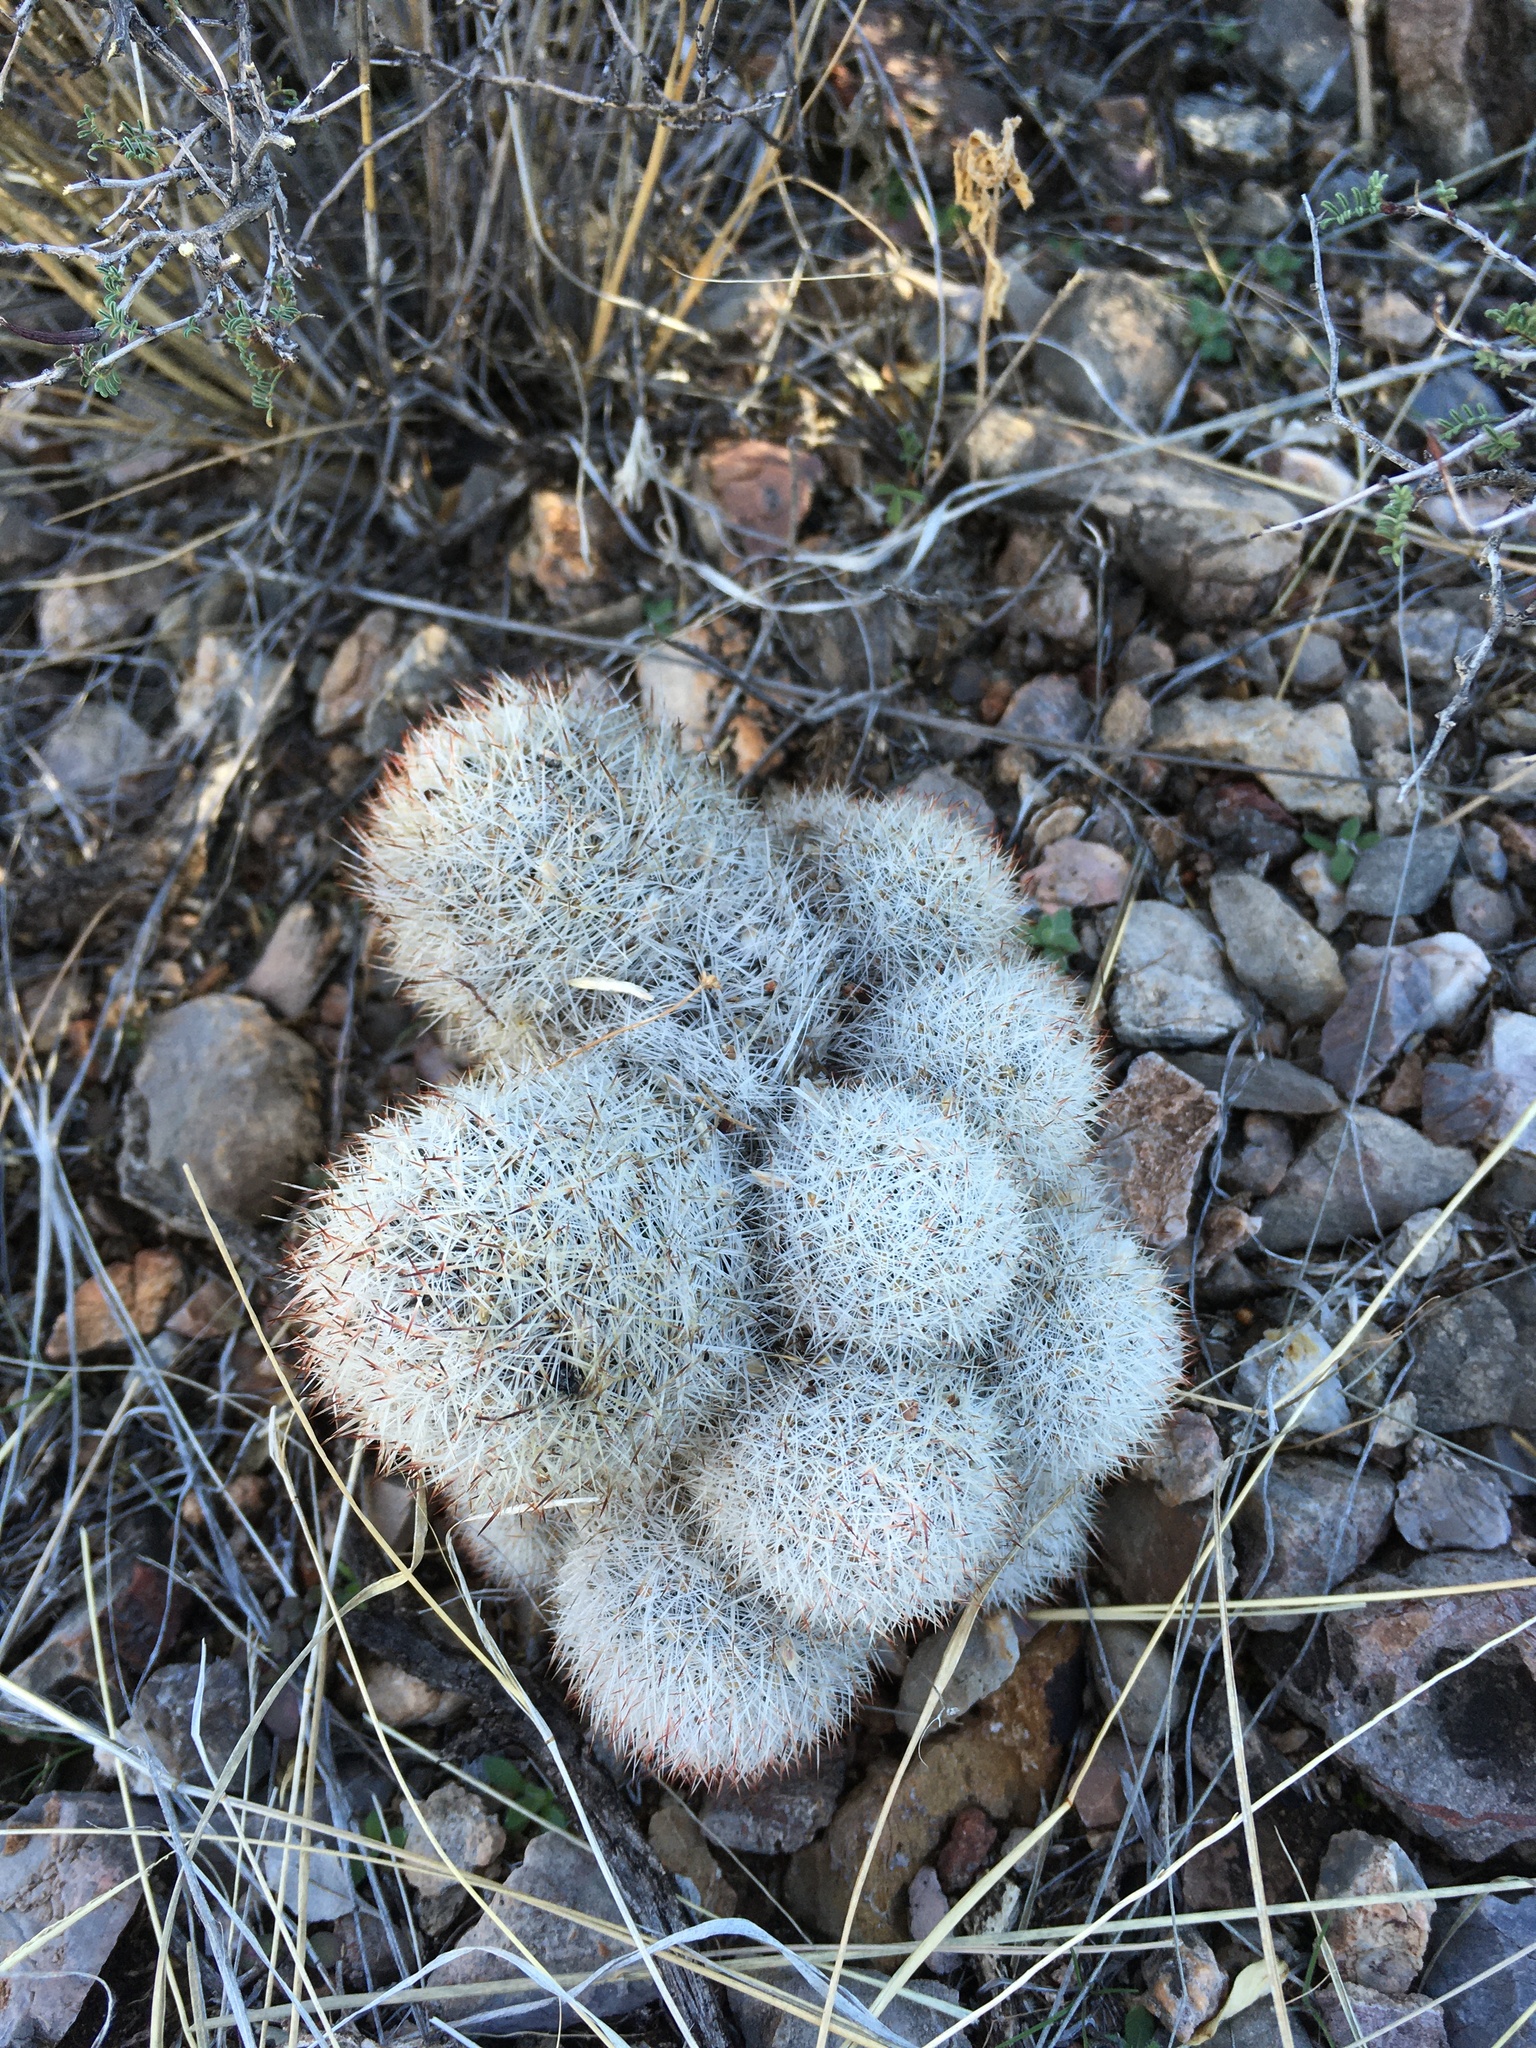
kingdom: Plantae
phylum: Tracheophyta
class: Magnoliopsida
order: Caryophyllales
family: Cactaceae
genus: Pelecyphora
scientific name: Pelecyphora sneedii
